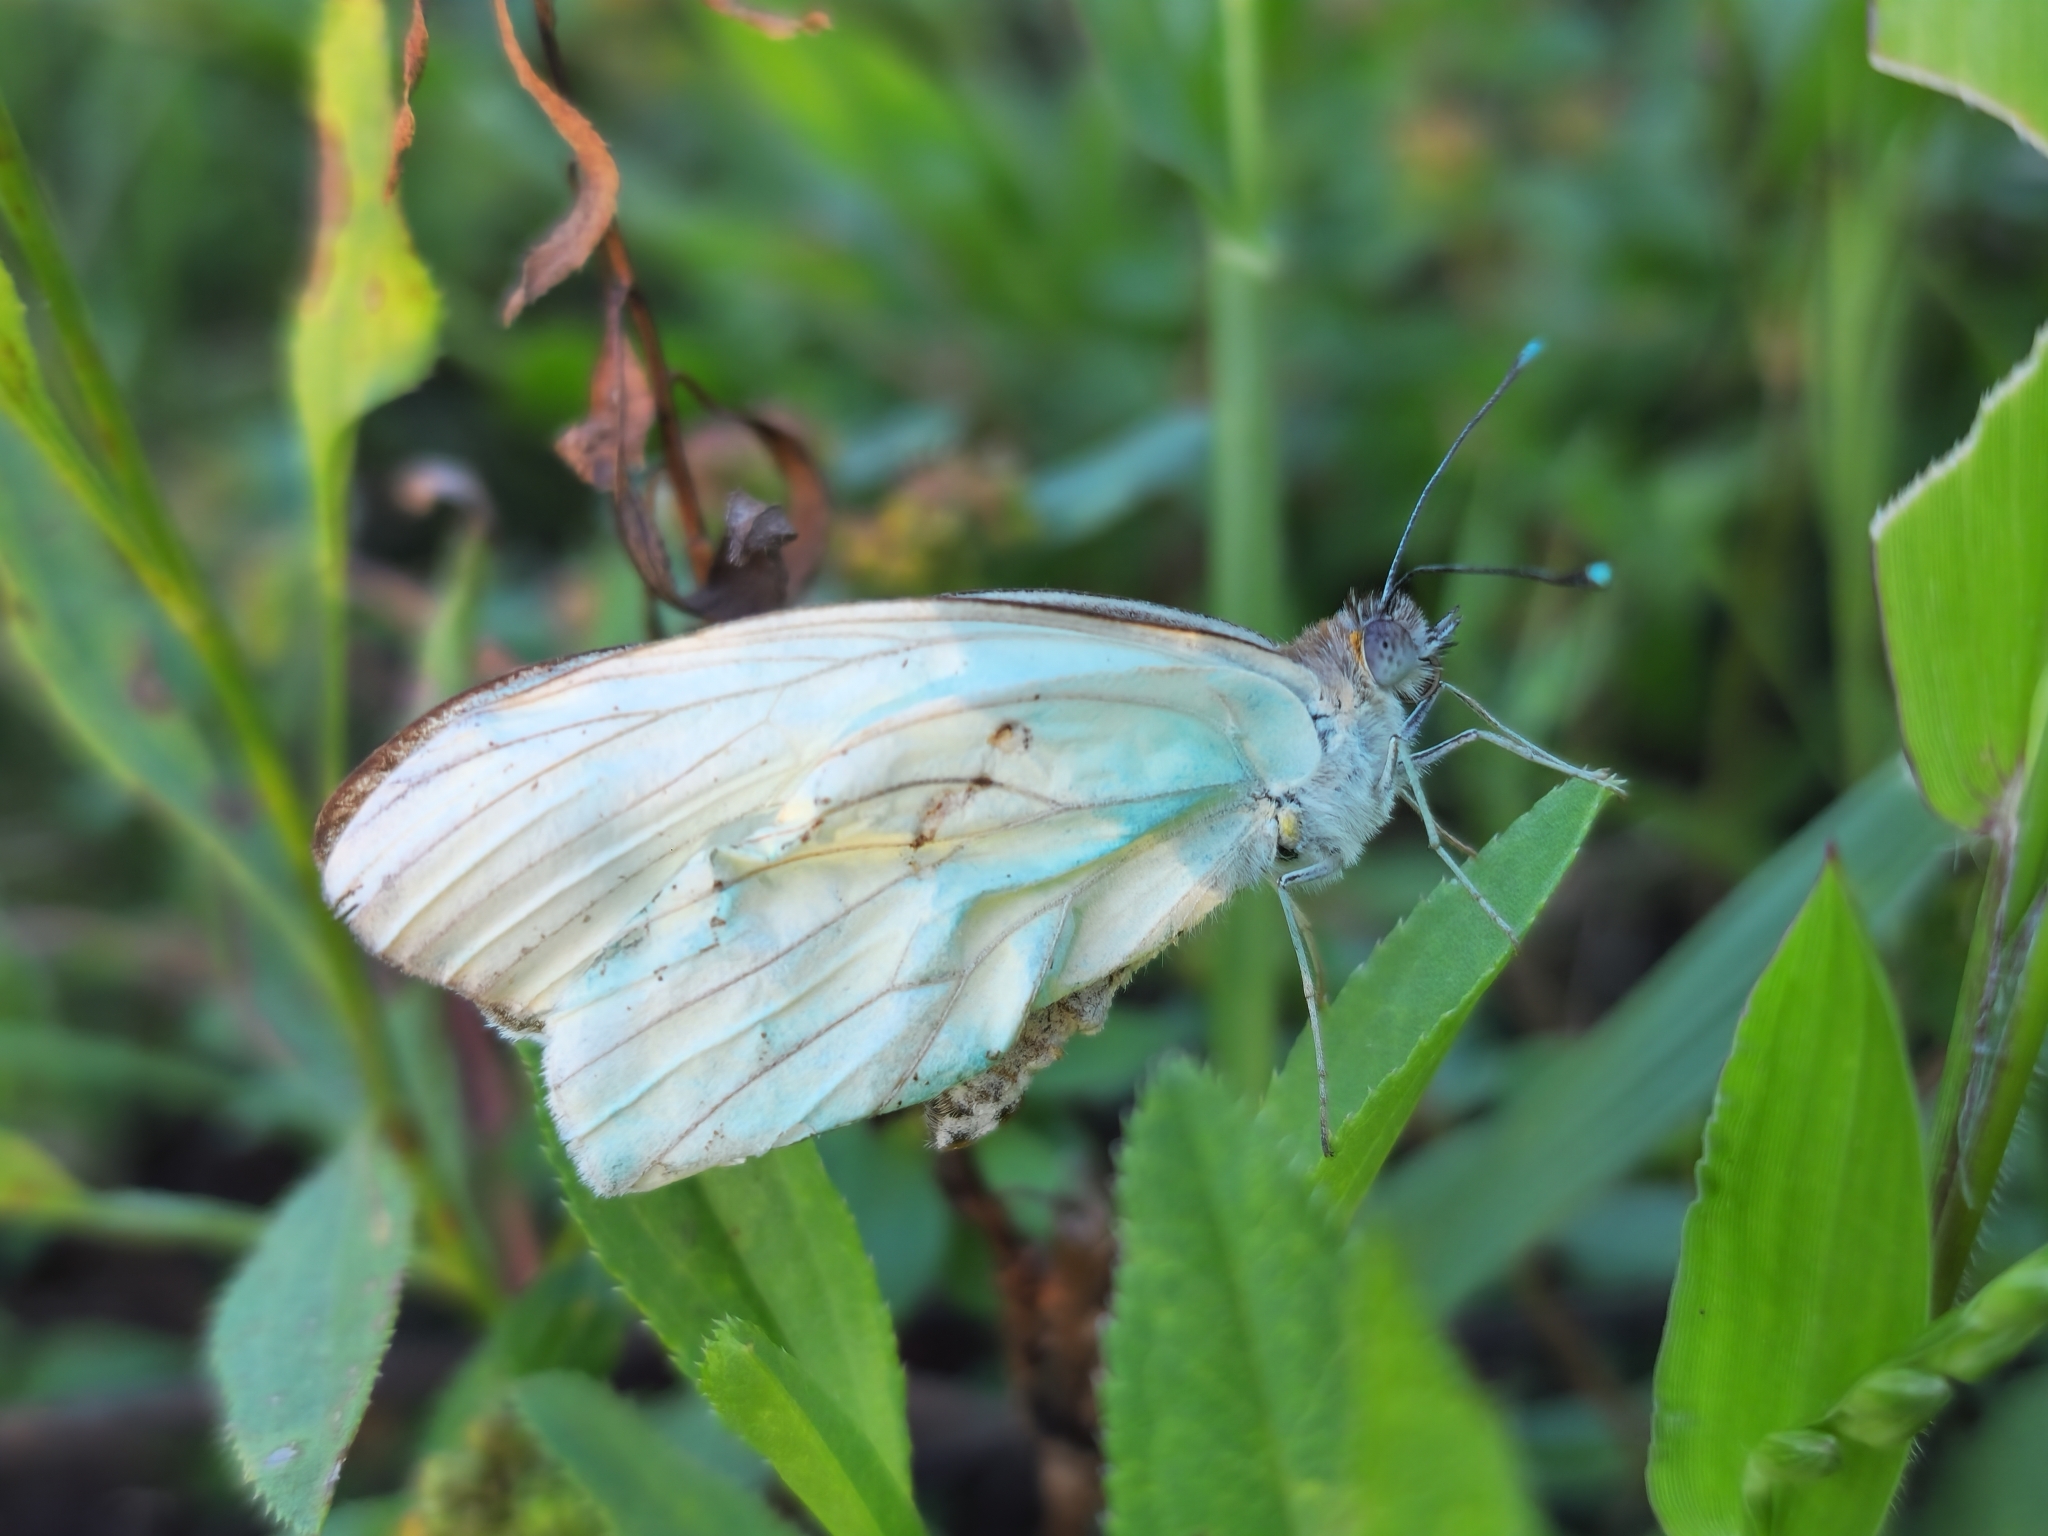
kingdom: Animalia
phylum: Arthropoda
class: Insecta
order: Lepidoptera
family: Pieridae
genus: Ascia
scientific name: Ascia monuste
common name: Great southern white
